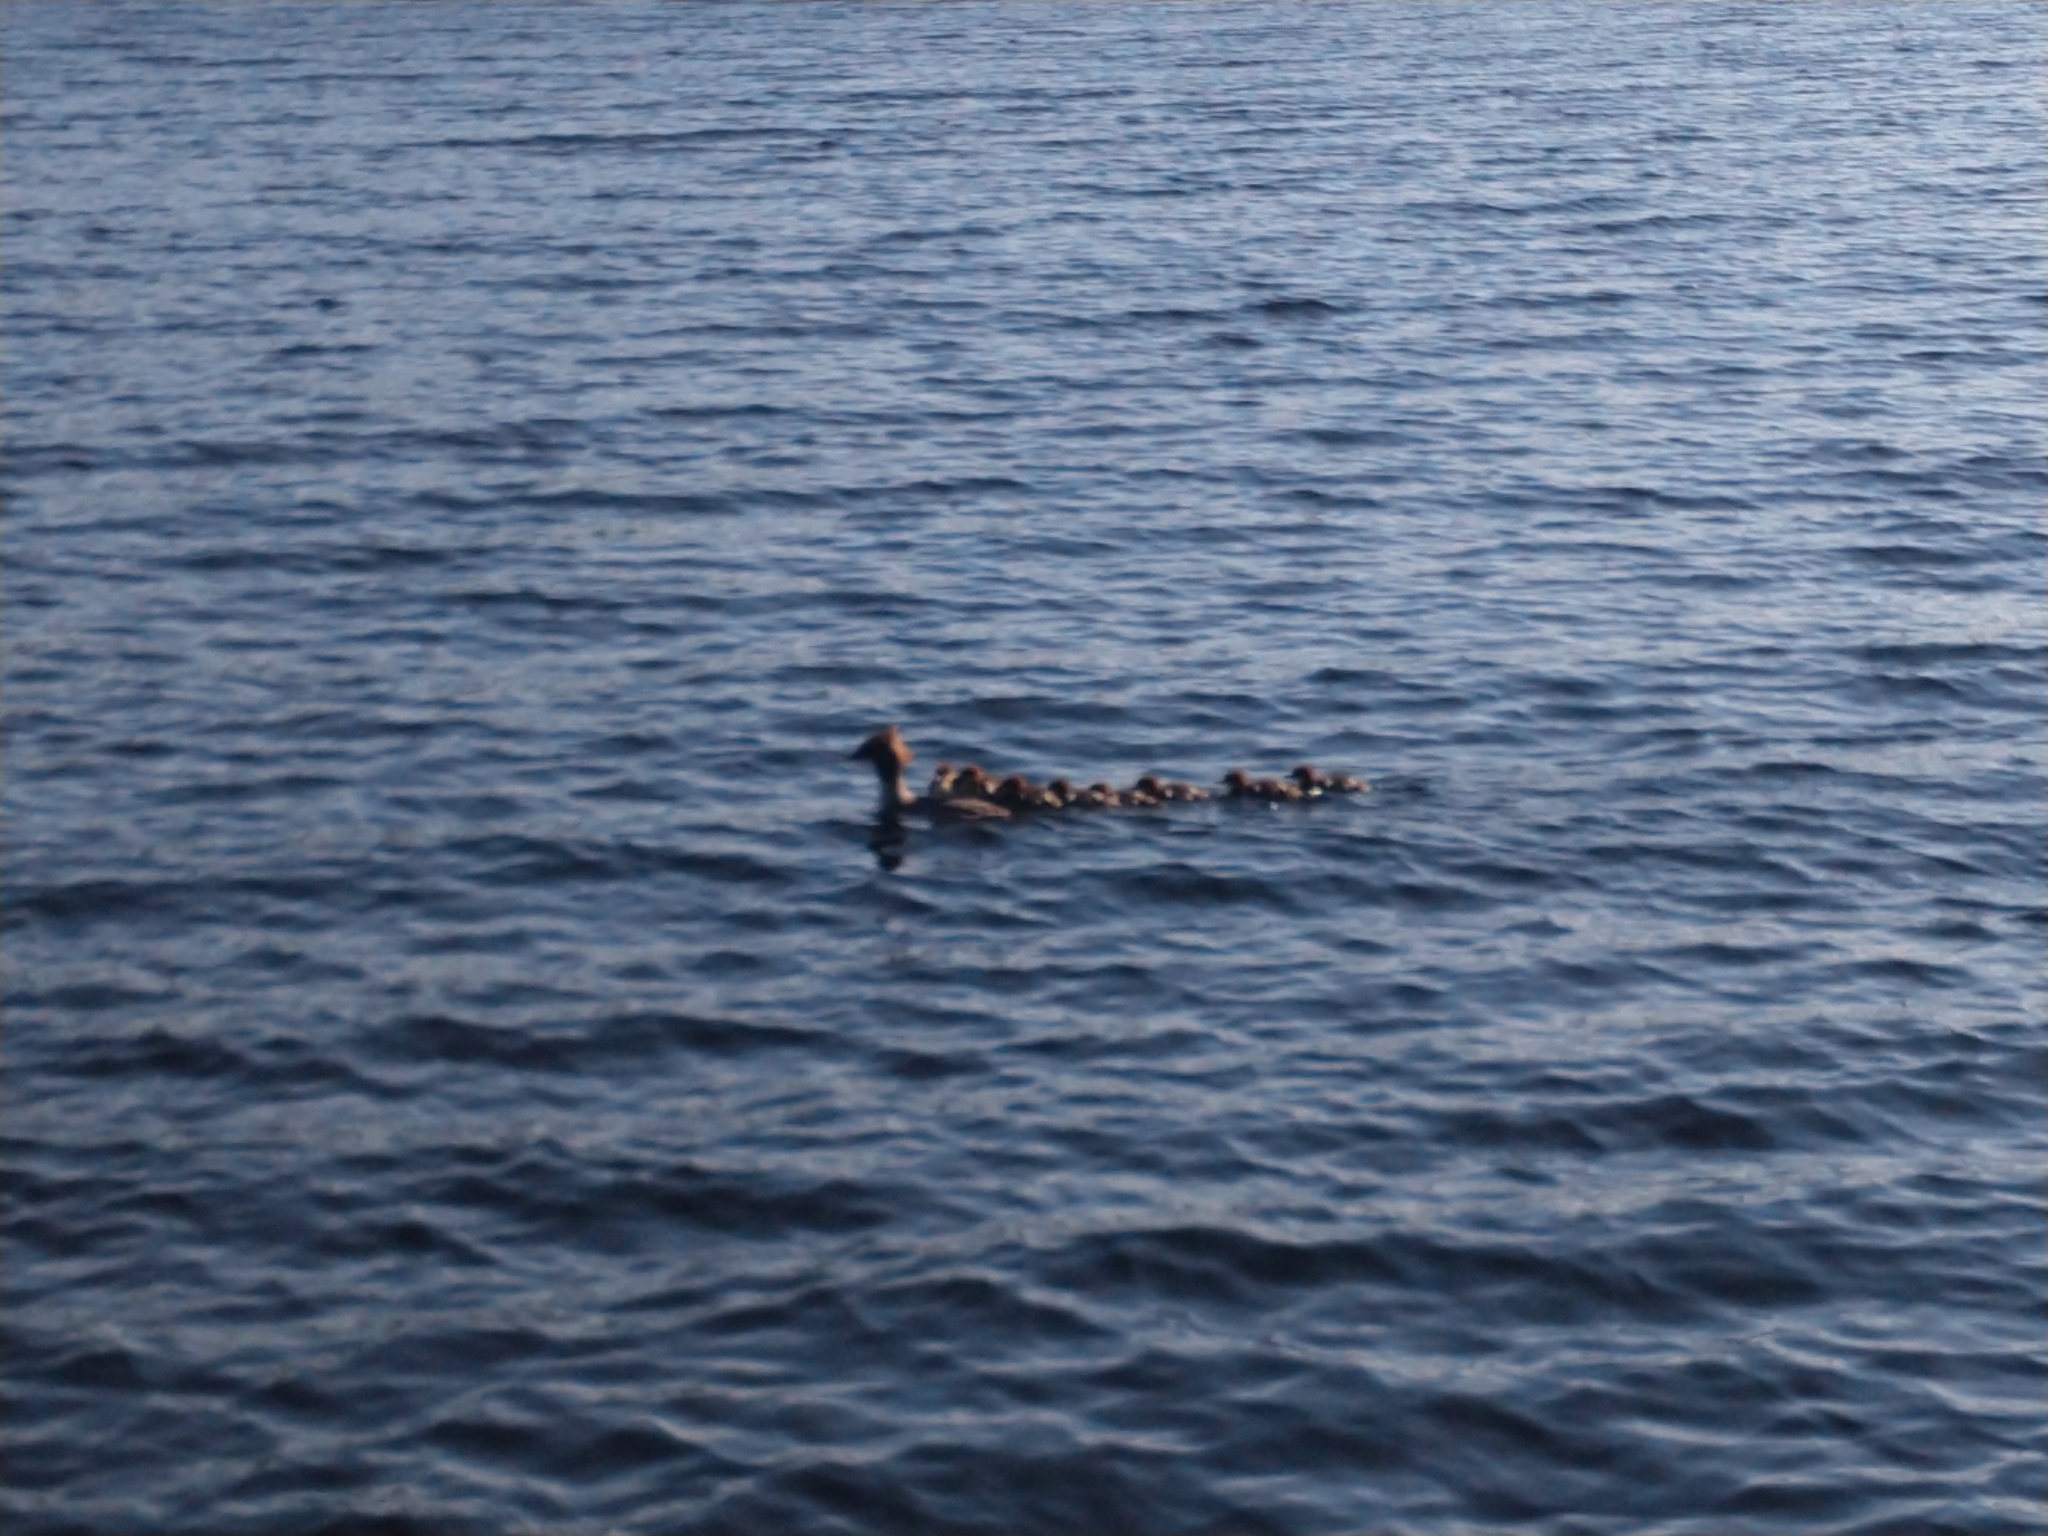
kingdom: Animalia
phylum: Chordata
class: Aves
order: Anseriformes
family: Anatidae
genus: Mergus
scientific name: Mergus merganser
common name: Common merganser
